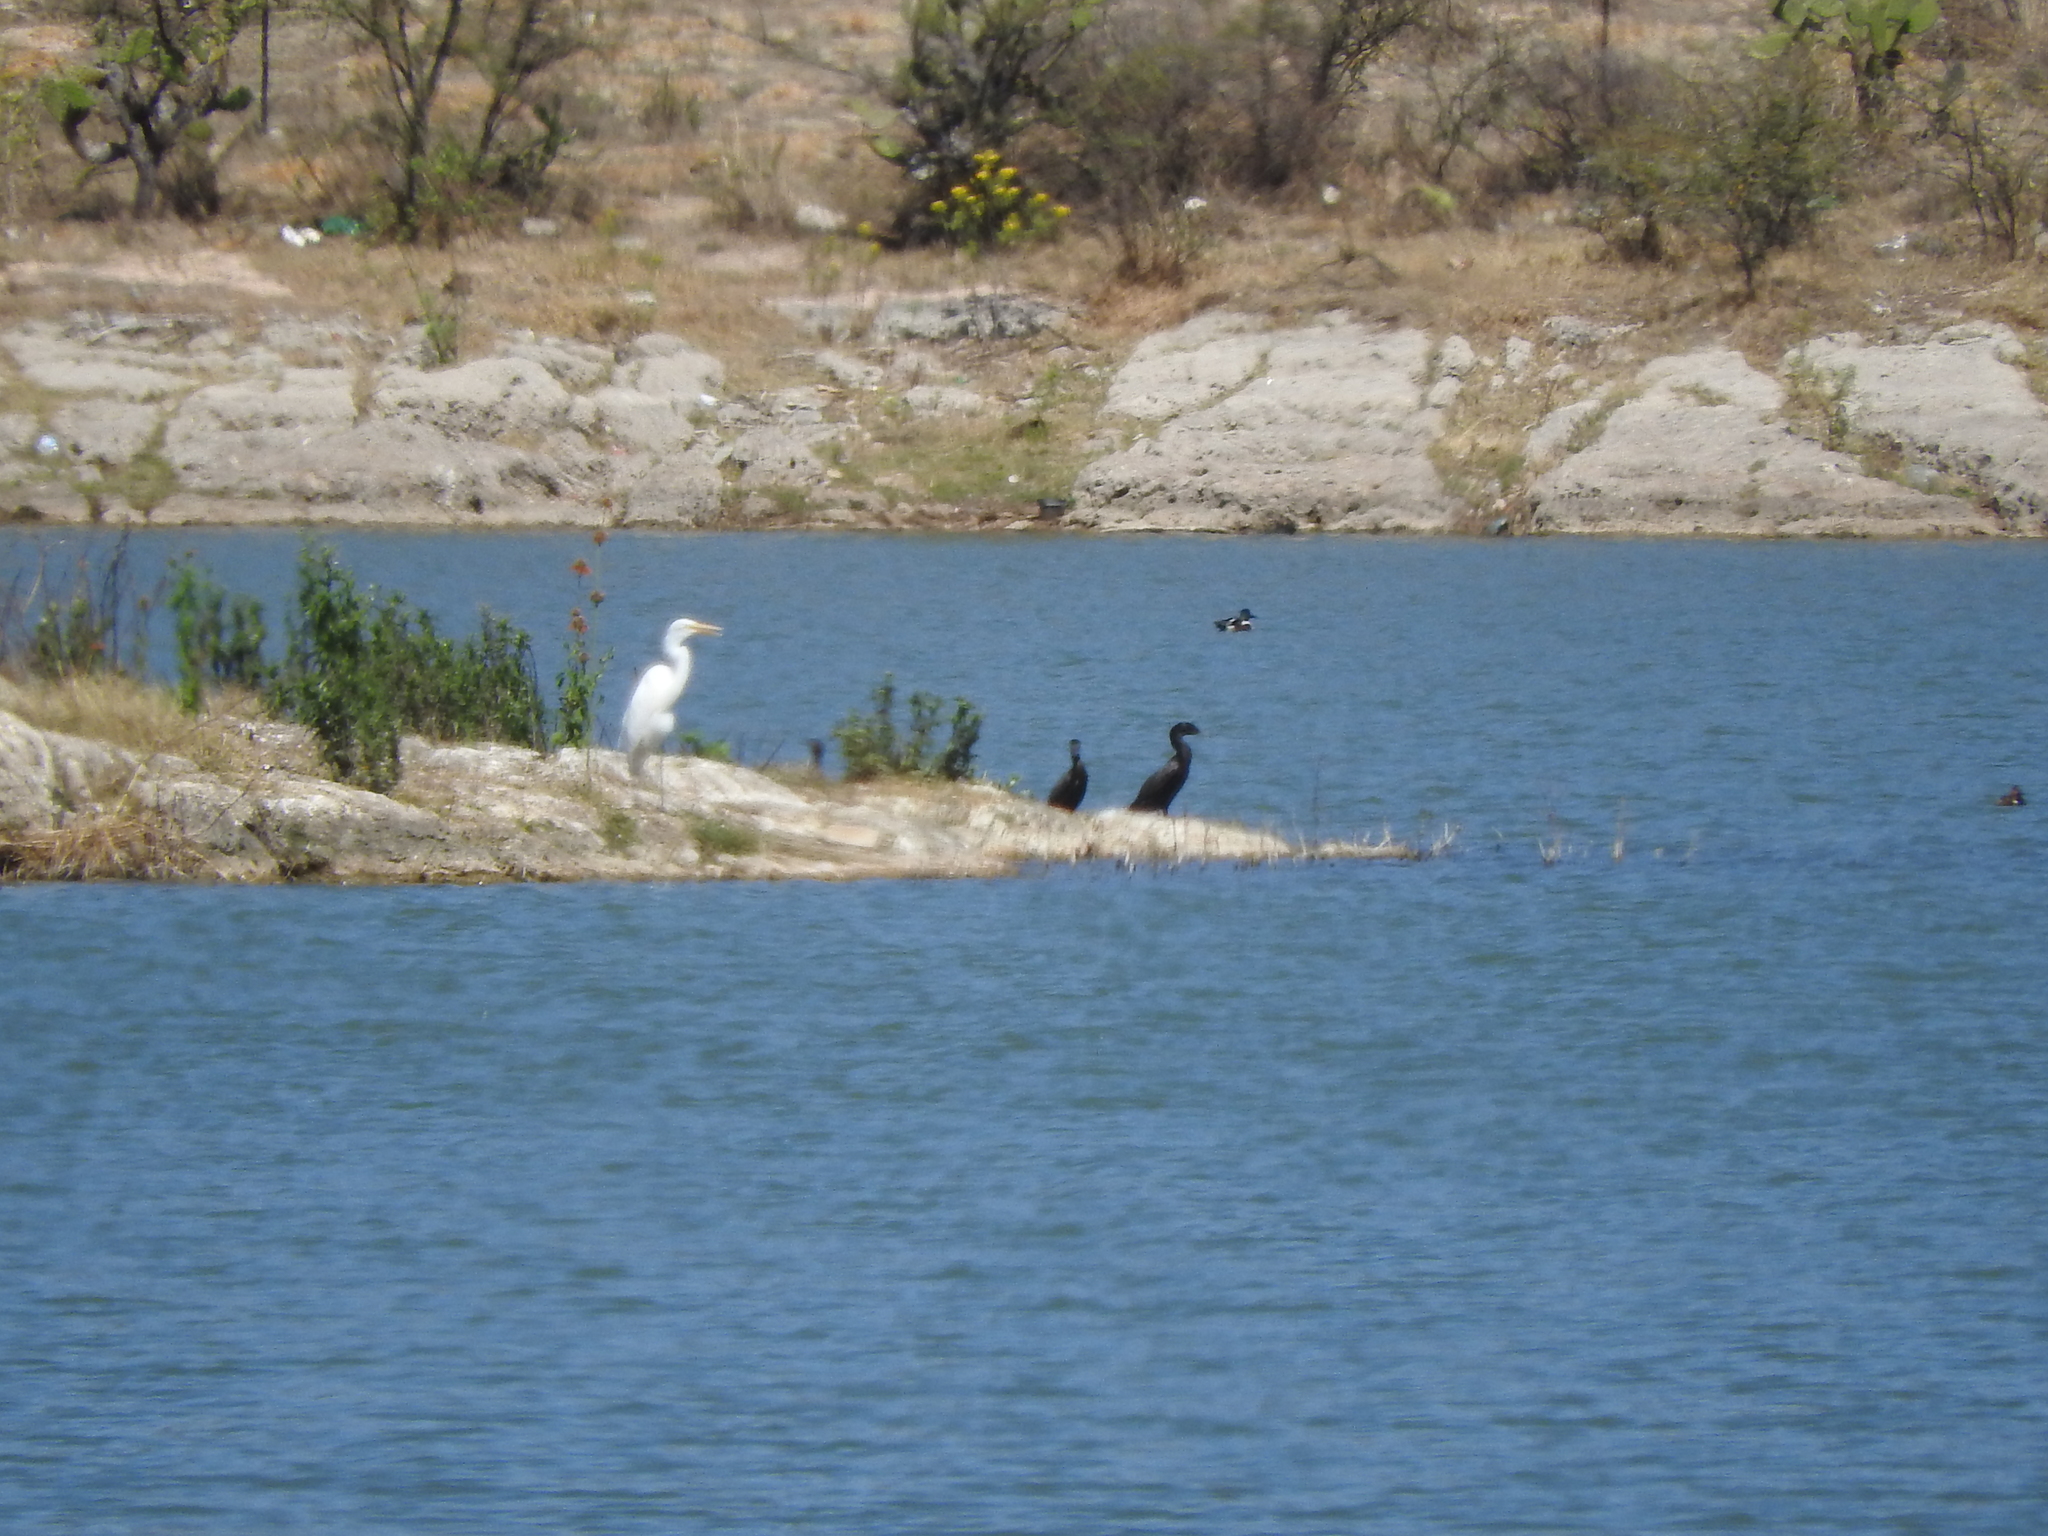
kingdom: Animalia
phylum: Chordata
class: Aves
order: Pelecaniformes
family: Ardeidae
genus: Ardea
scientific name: Ardea alba
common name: Great egret
